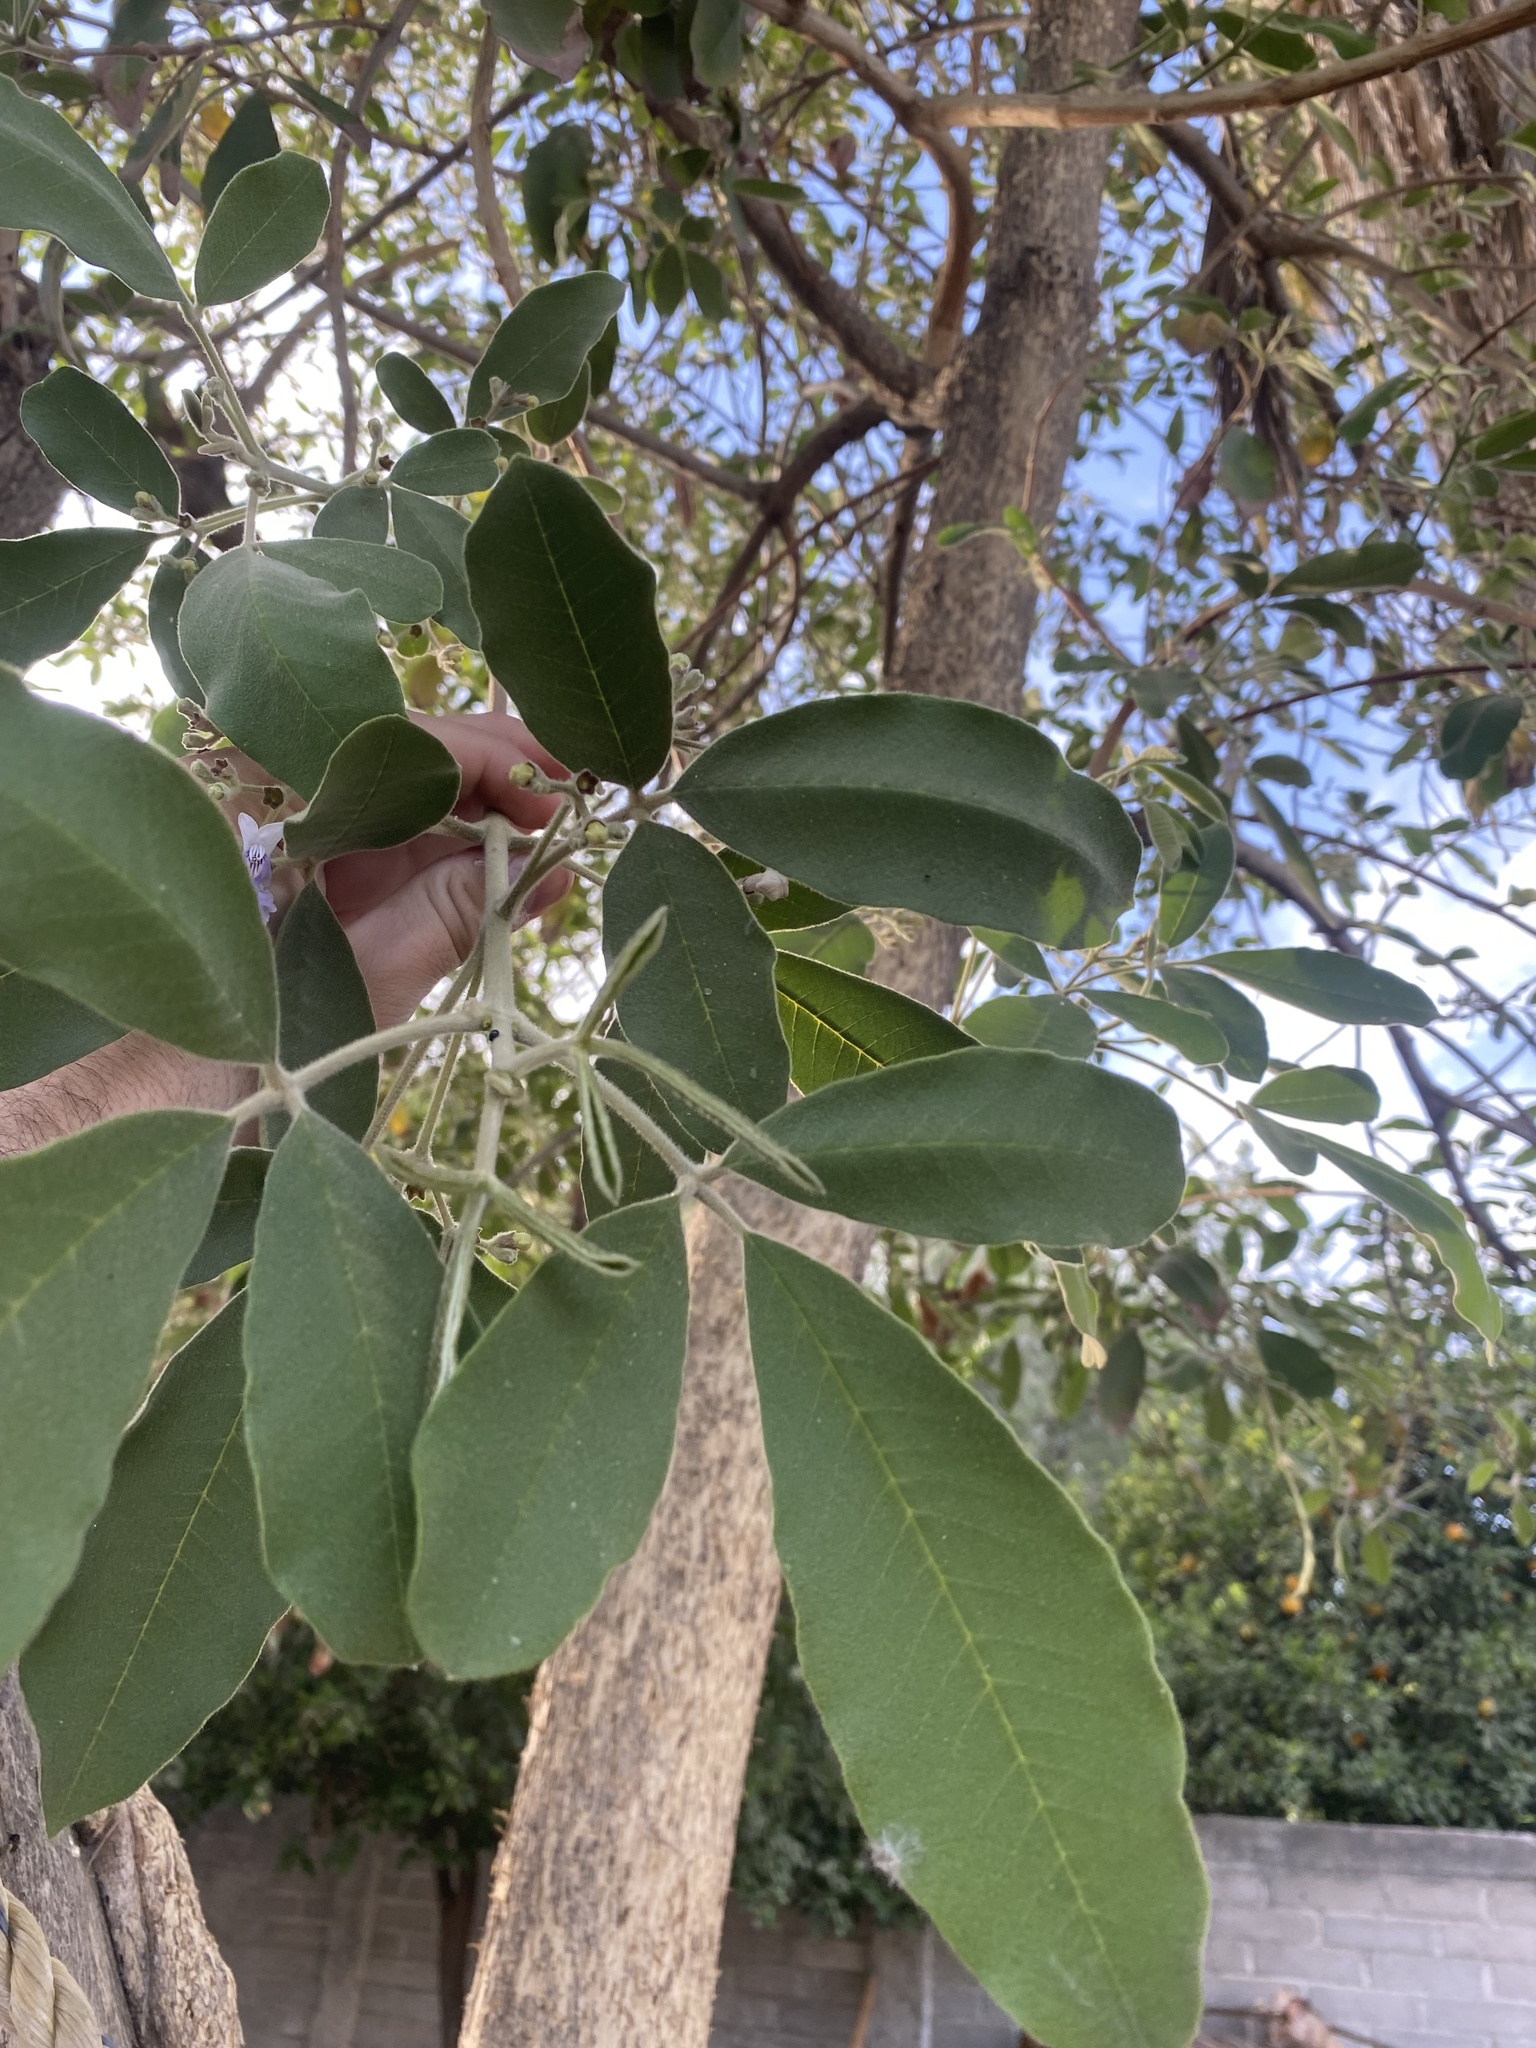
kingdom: Plantae
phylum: Tracheophyta
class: Magnoliopsida
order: Lamiales
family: Lamiaceae
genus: Vitex
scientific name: Vitex mollis
